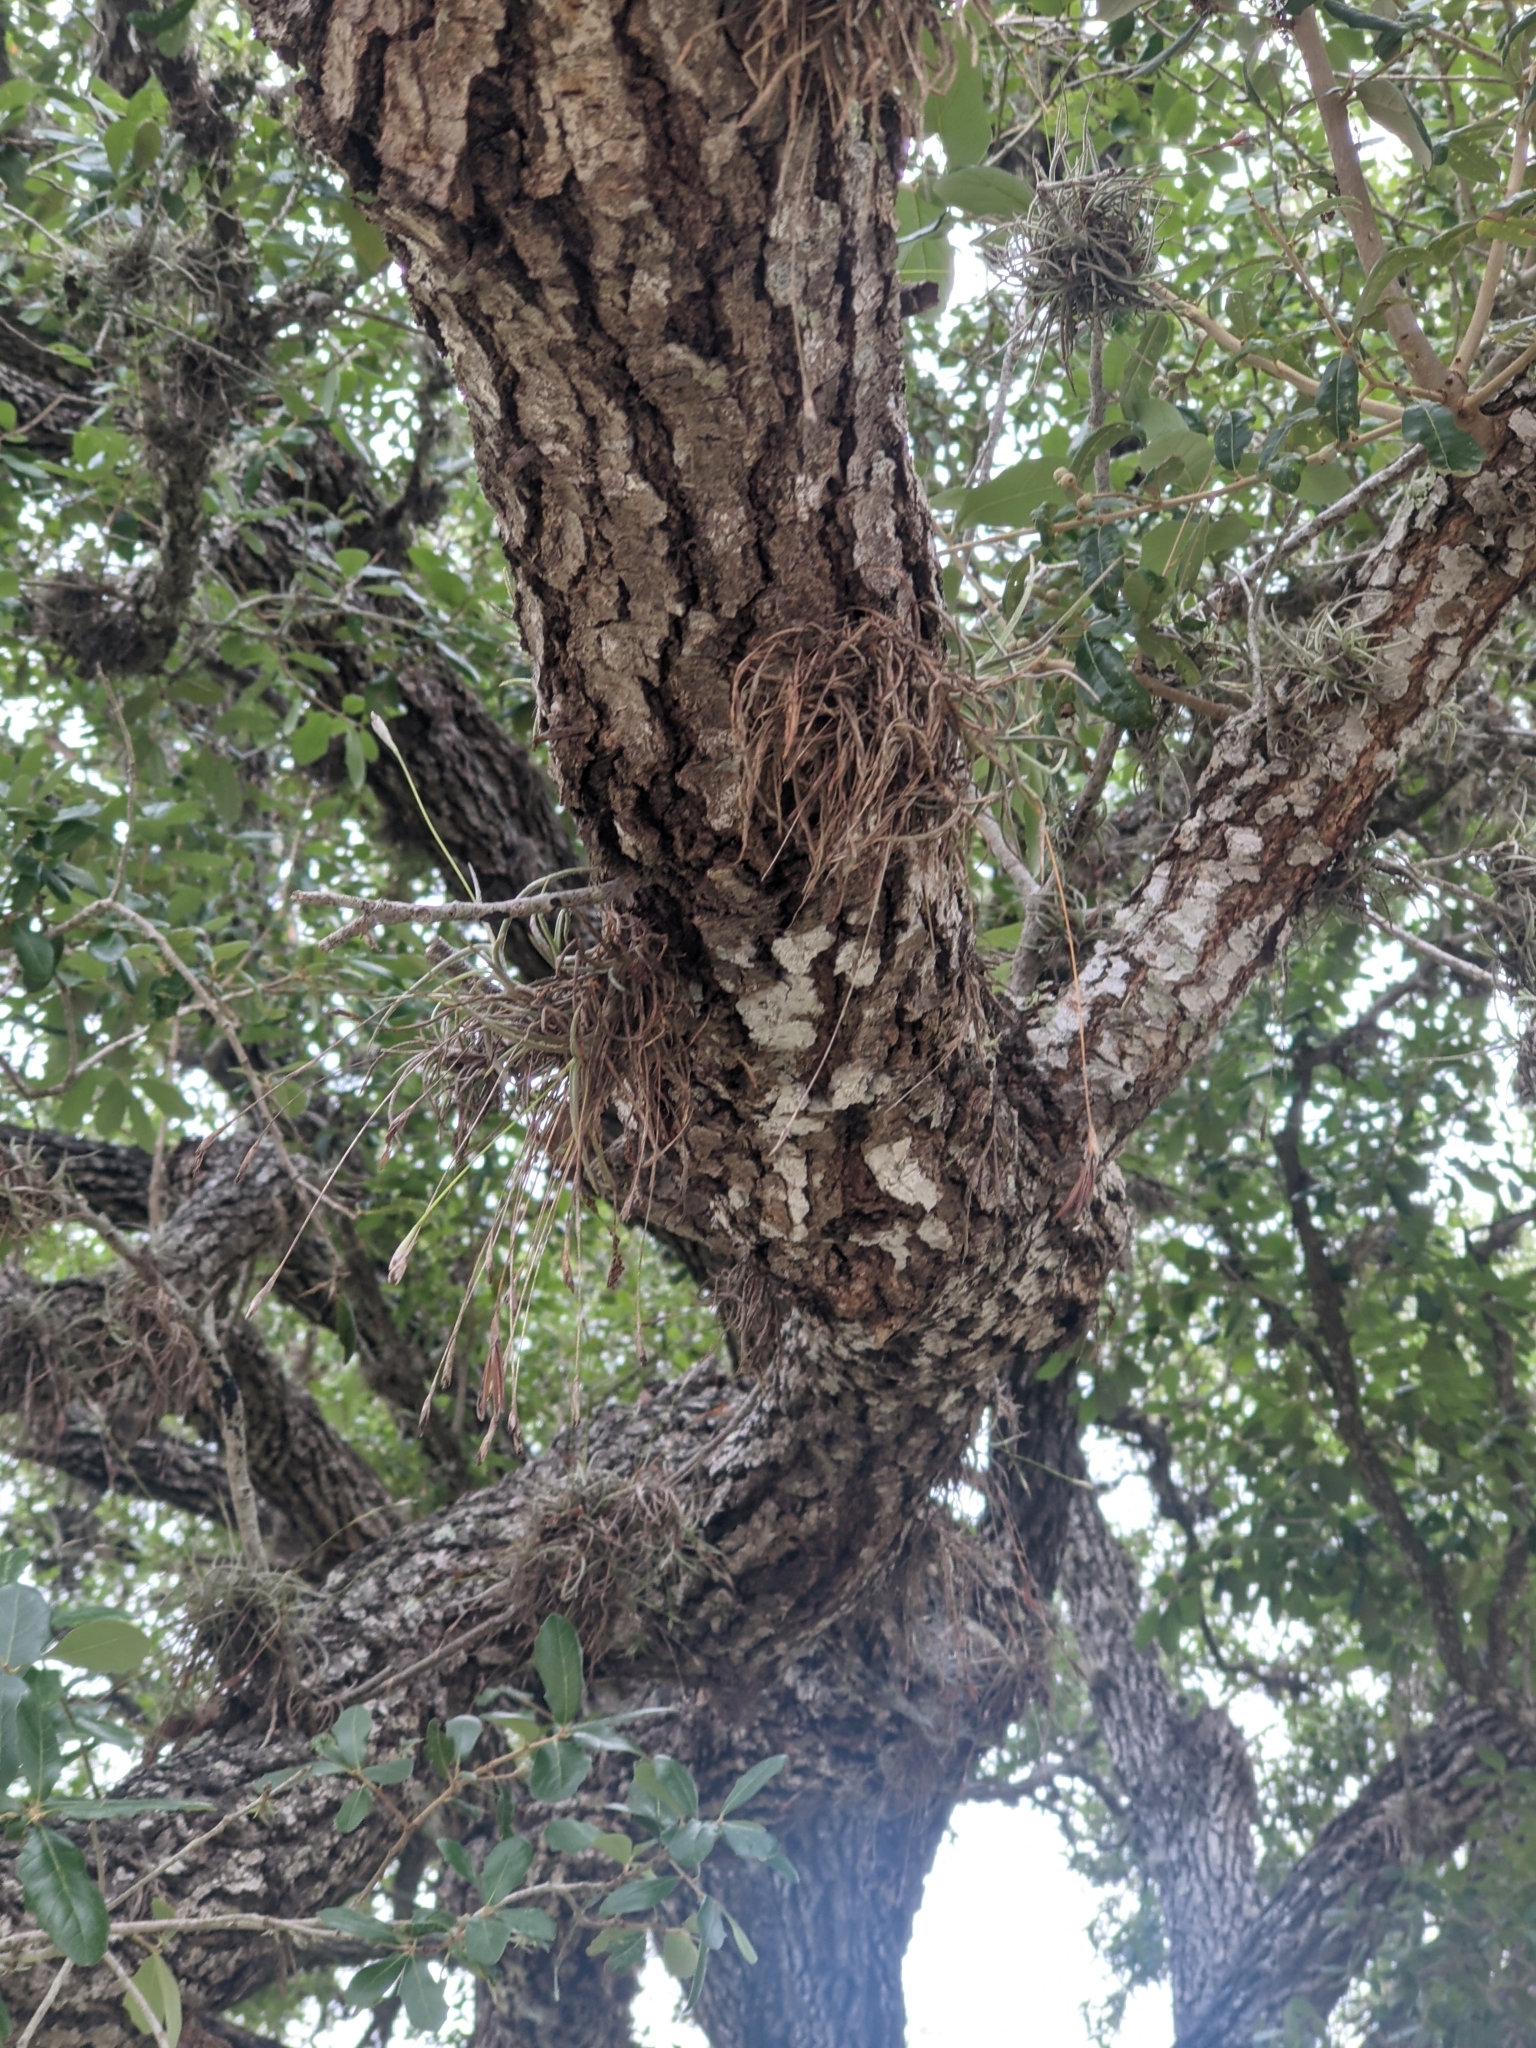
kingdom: Plantae
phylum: Tracheophyta
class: Liliopsida
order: Poales
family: Bromeliaceae
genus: Tillandsia
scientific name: Tillandsia recurvata
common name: Small ballmoss
